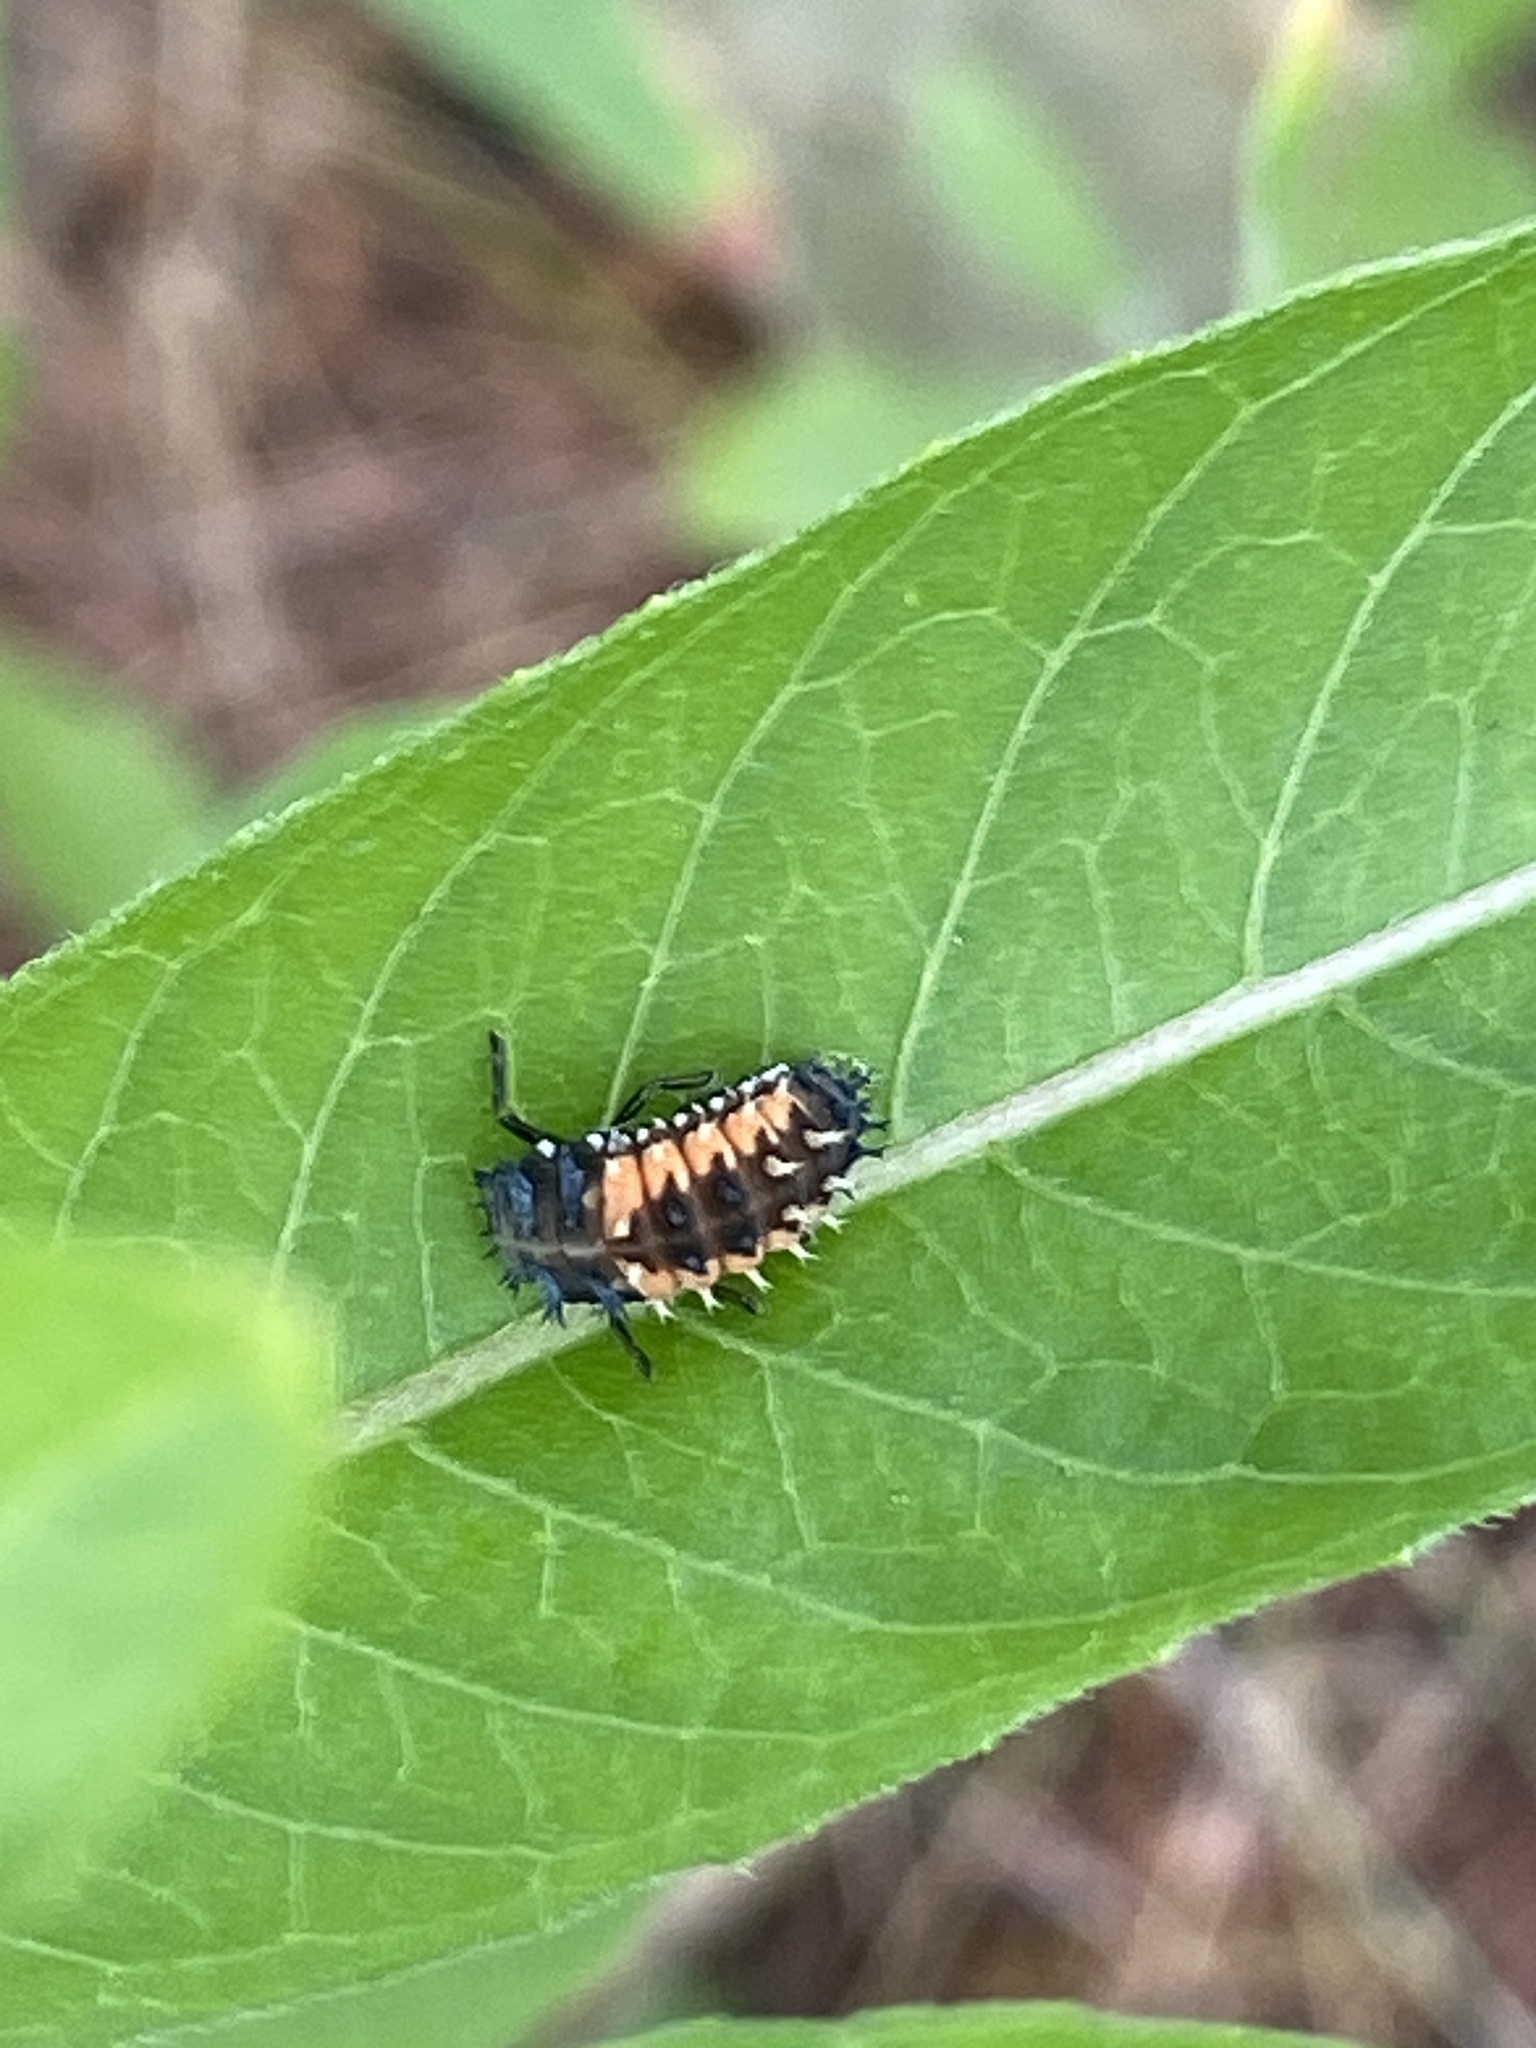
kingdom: Animalia
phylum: Arthropoda
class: Insecta
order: Coleoptera
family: Coccinellidae
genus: Harmonia
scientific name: Harmonia axyridis
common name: Harlequin ladybird
